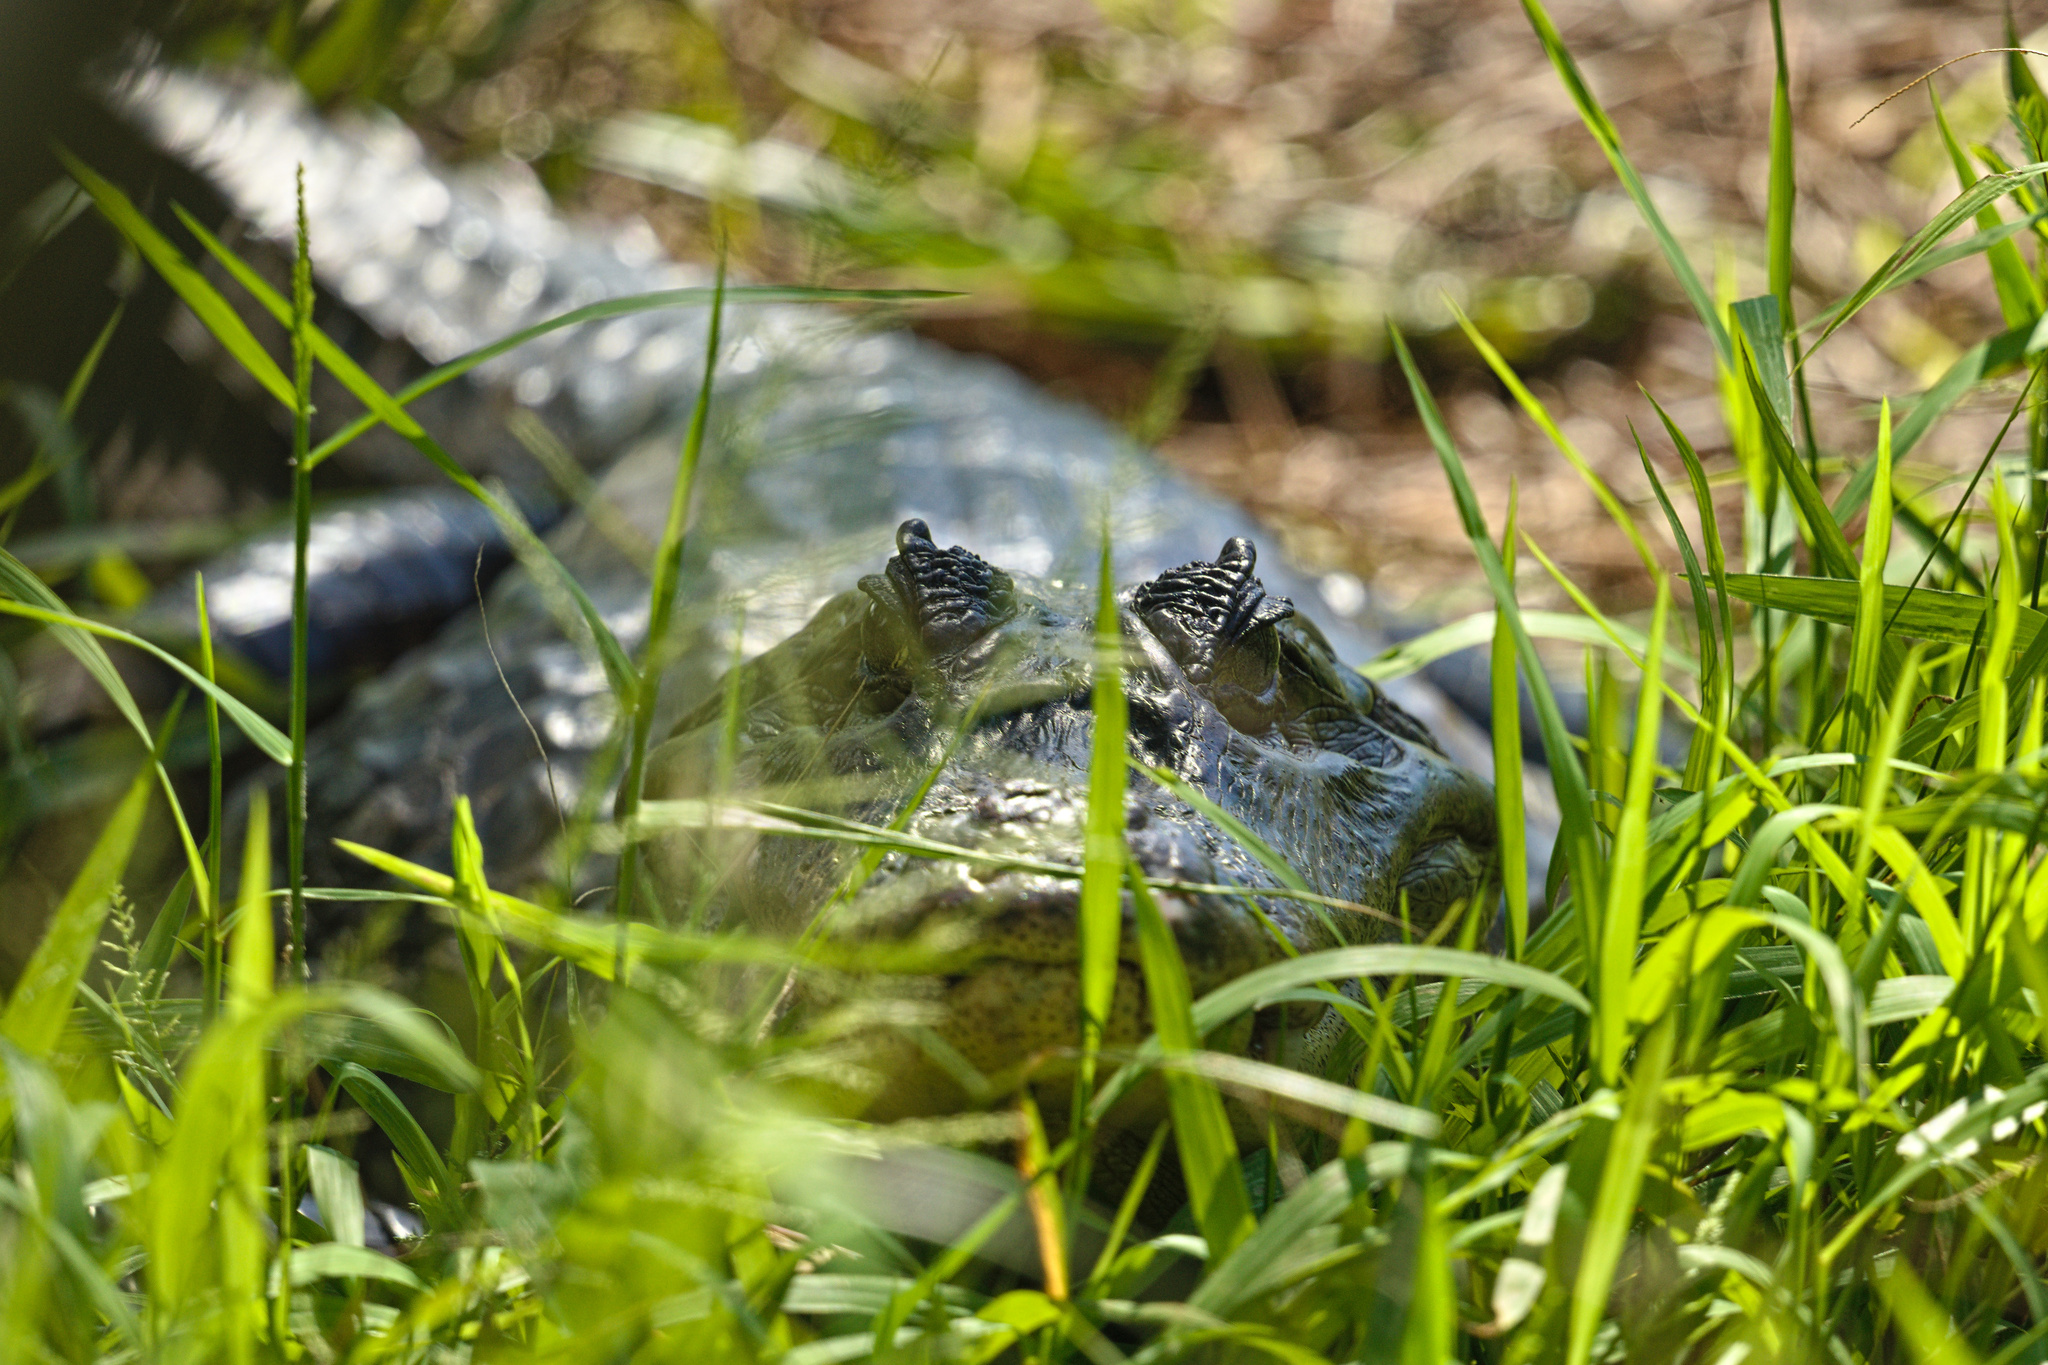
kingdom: Animalia
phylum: Chordata
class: Crocodylia
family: Alligatoridae
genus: Caiman
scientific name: Caiman crocodilus
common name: Common caiman
